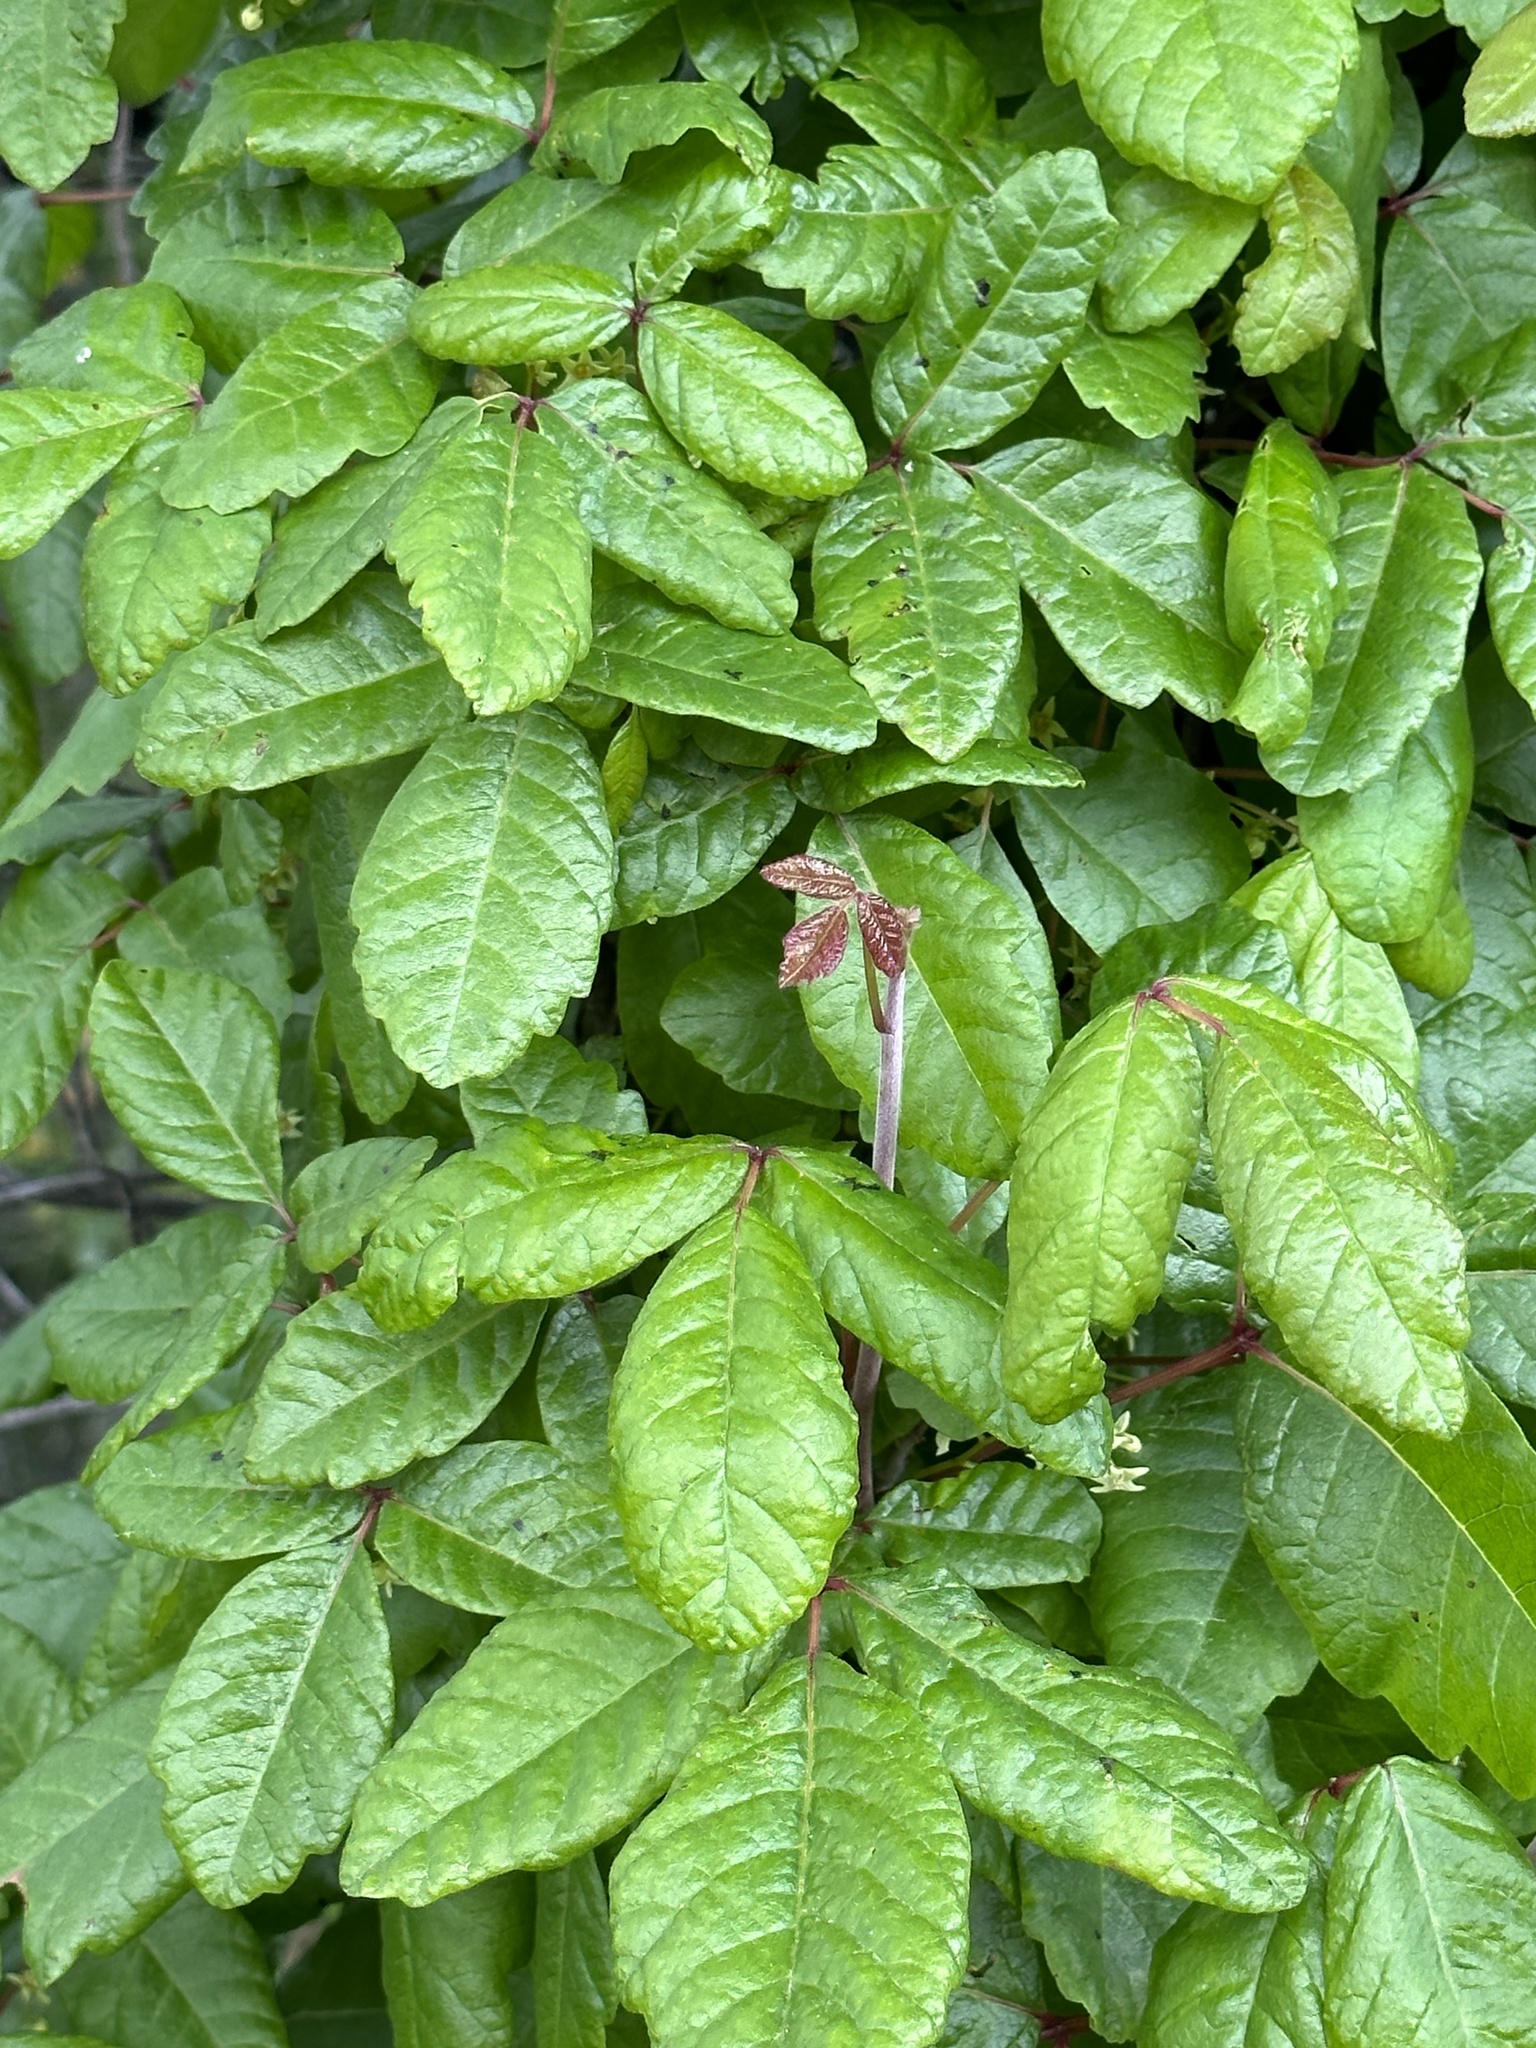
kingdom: Plantae
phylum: Tracheophyta
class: Magnoliopsida
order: Sapindales
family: Anacardiaceae
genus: Toxicodendron
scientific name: Toxicodendron diversilobum
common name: Pacific poison-oak
